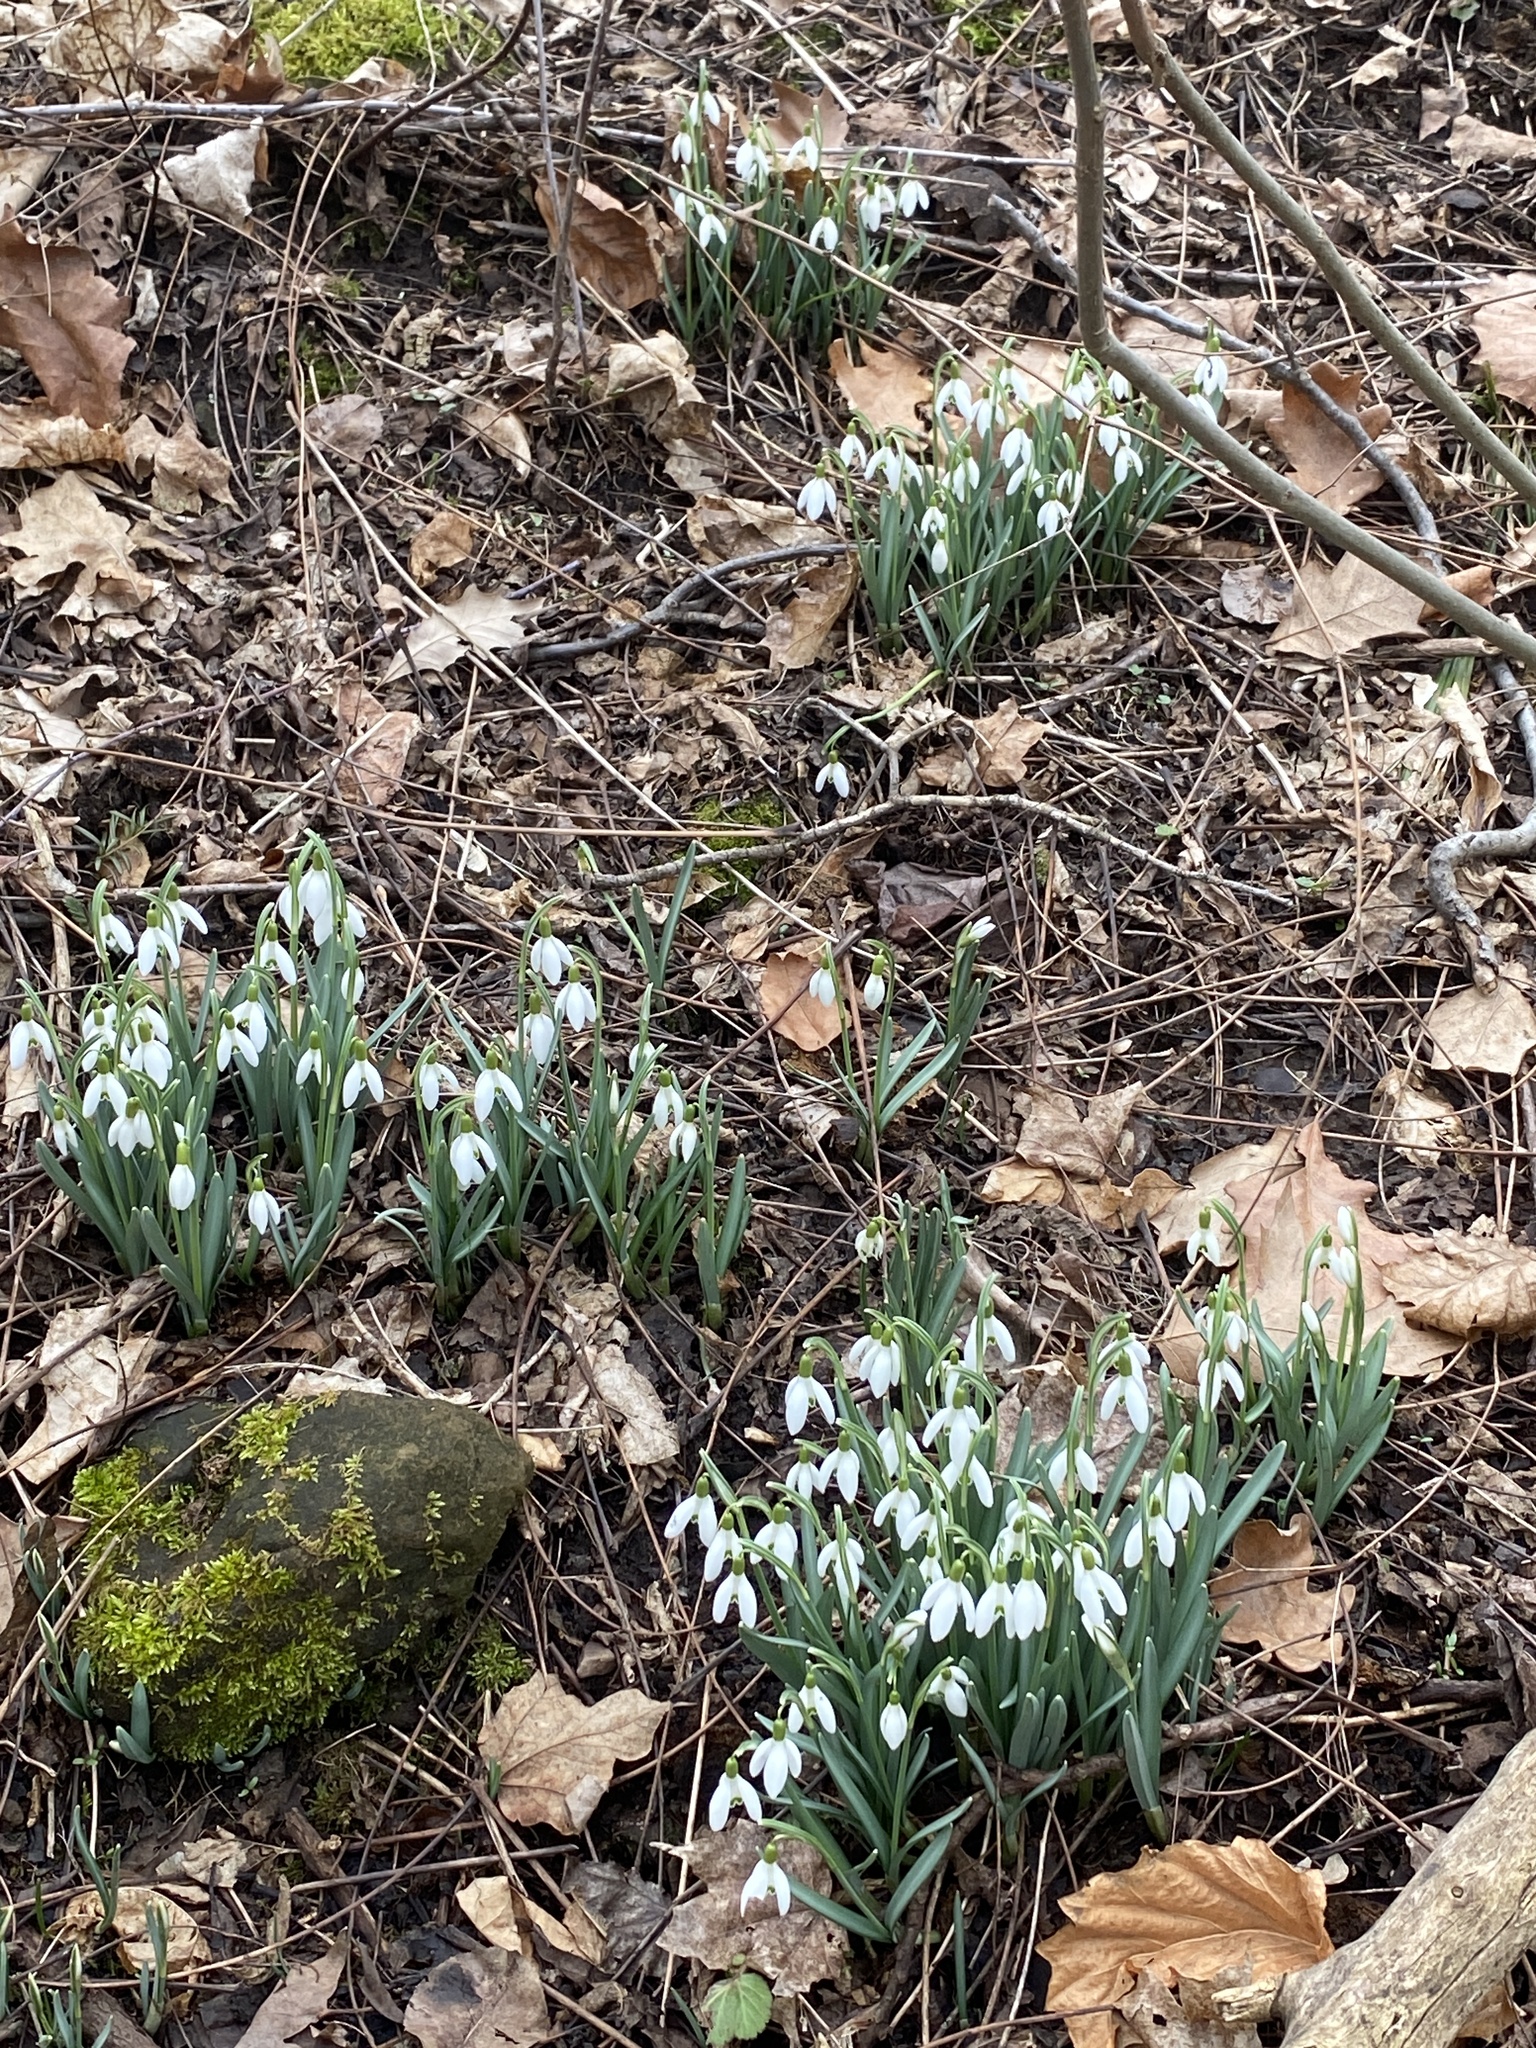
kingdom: Plantae
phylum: Tracheophyta
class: Liliopsida
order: Asparagales
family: Amaryllidaceae
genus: Galanthus
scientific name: Galanthus nivalis
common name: Snowdrop
